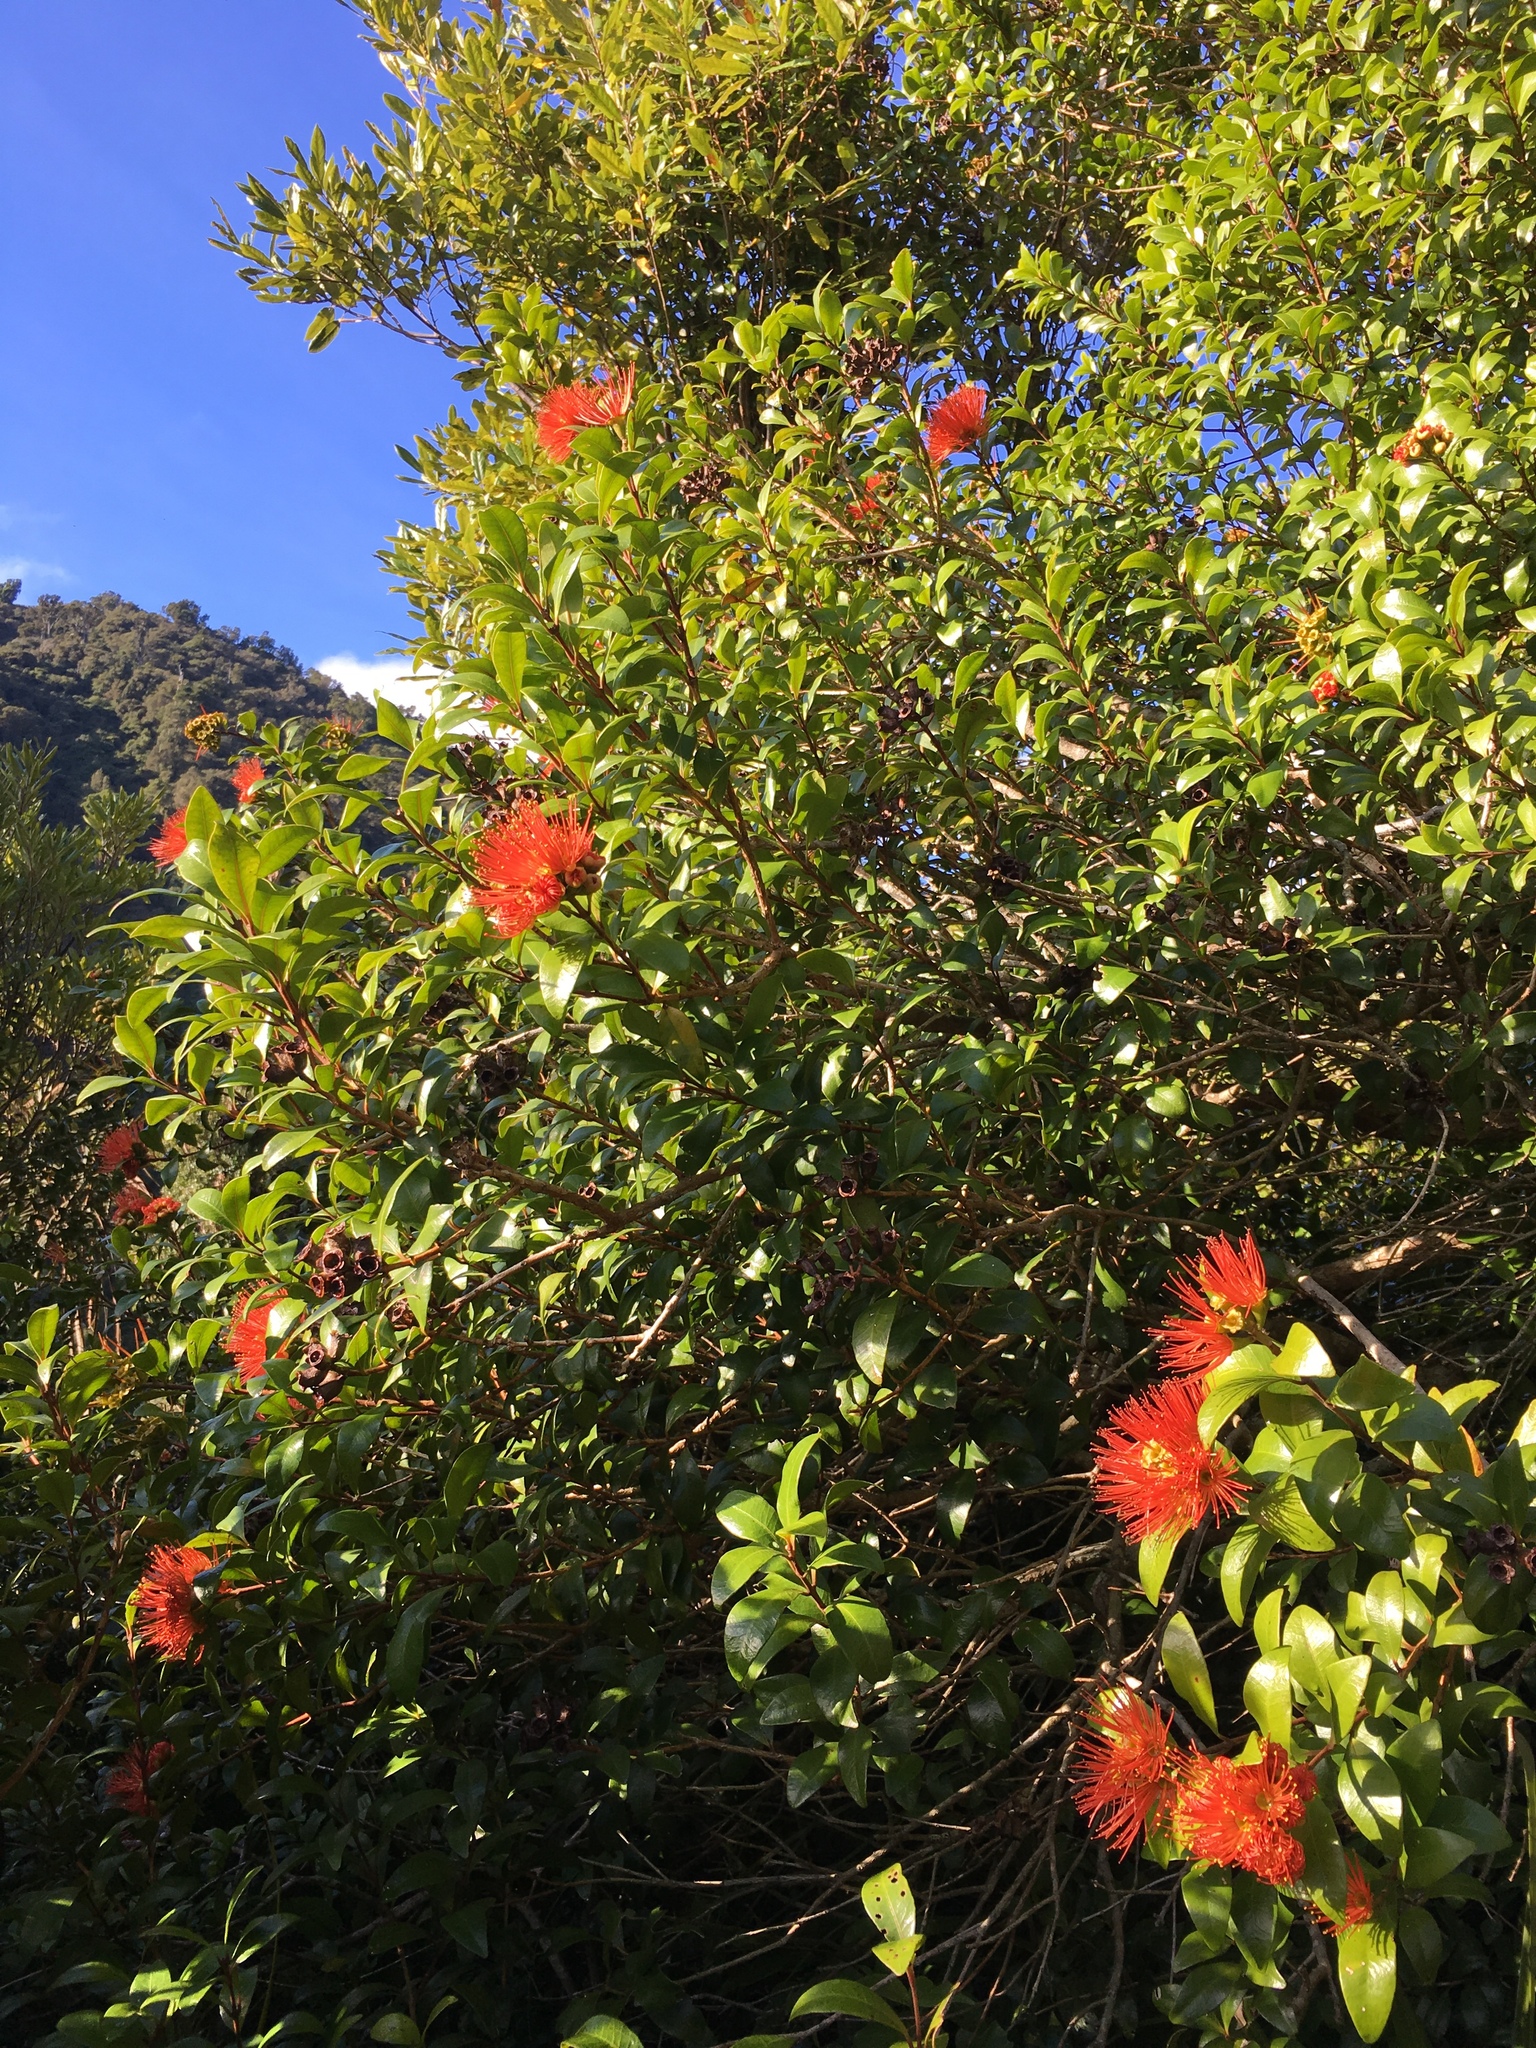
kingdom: Plantae
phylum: Tracheophyta
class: Magnoliopsida
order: Myrtales
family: Myrtaceae
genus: Metrosideros
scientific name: Metrosideros fulgens
